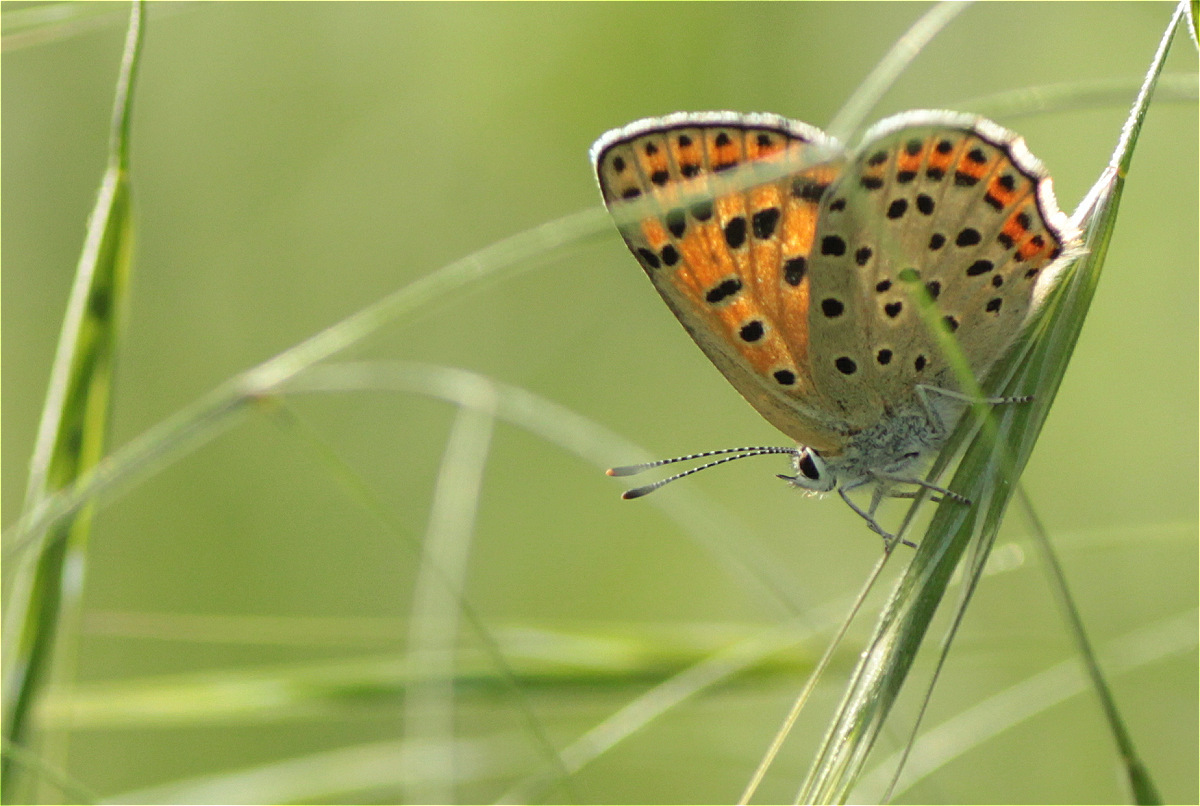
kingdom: Animalia
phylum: Arthropoda
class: Insecta
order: Lepidoptera
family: Lycaenidae
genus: Loweia
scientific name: Loweia tityrus
